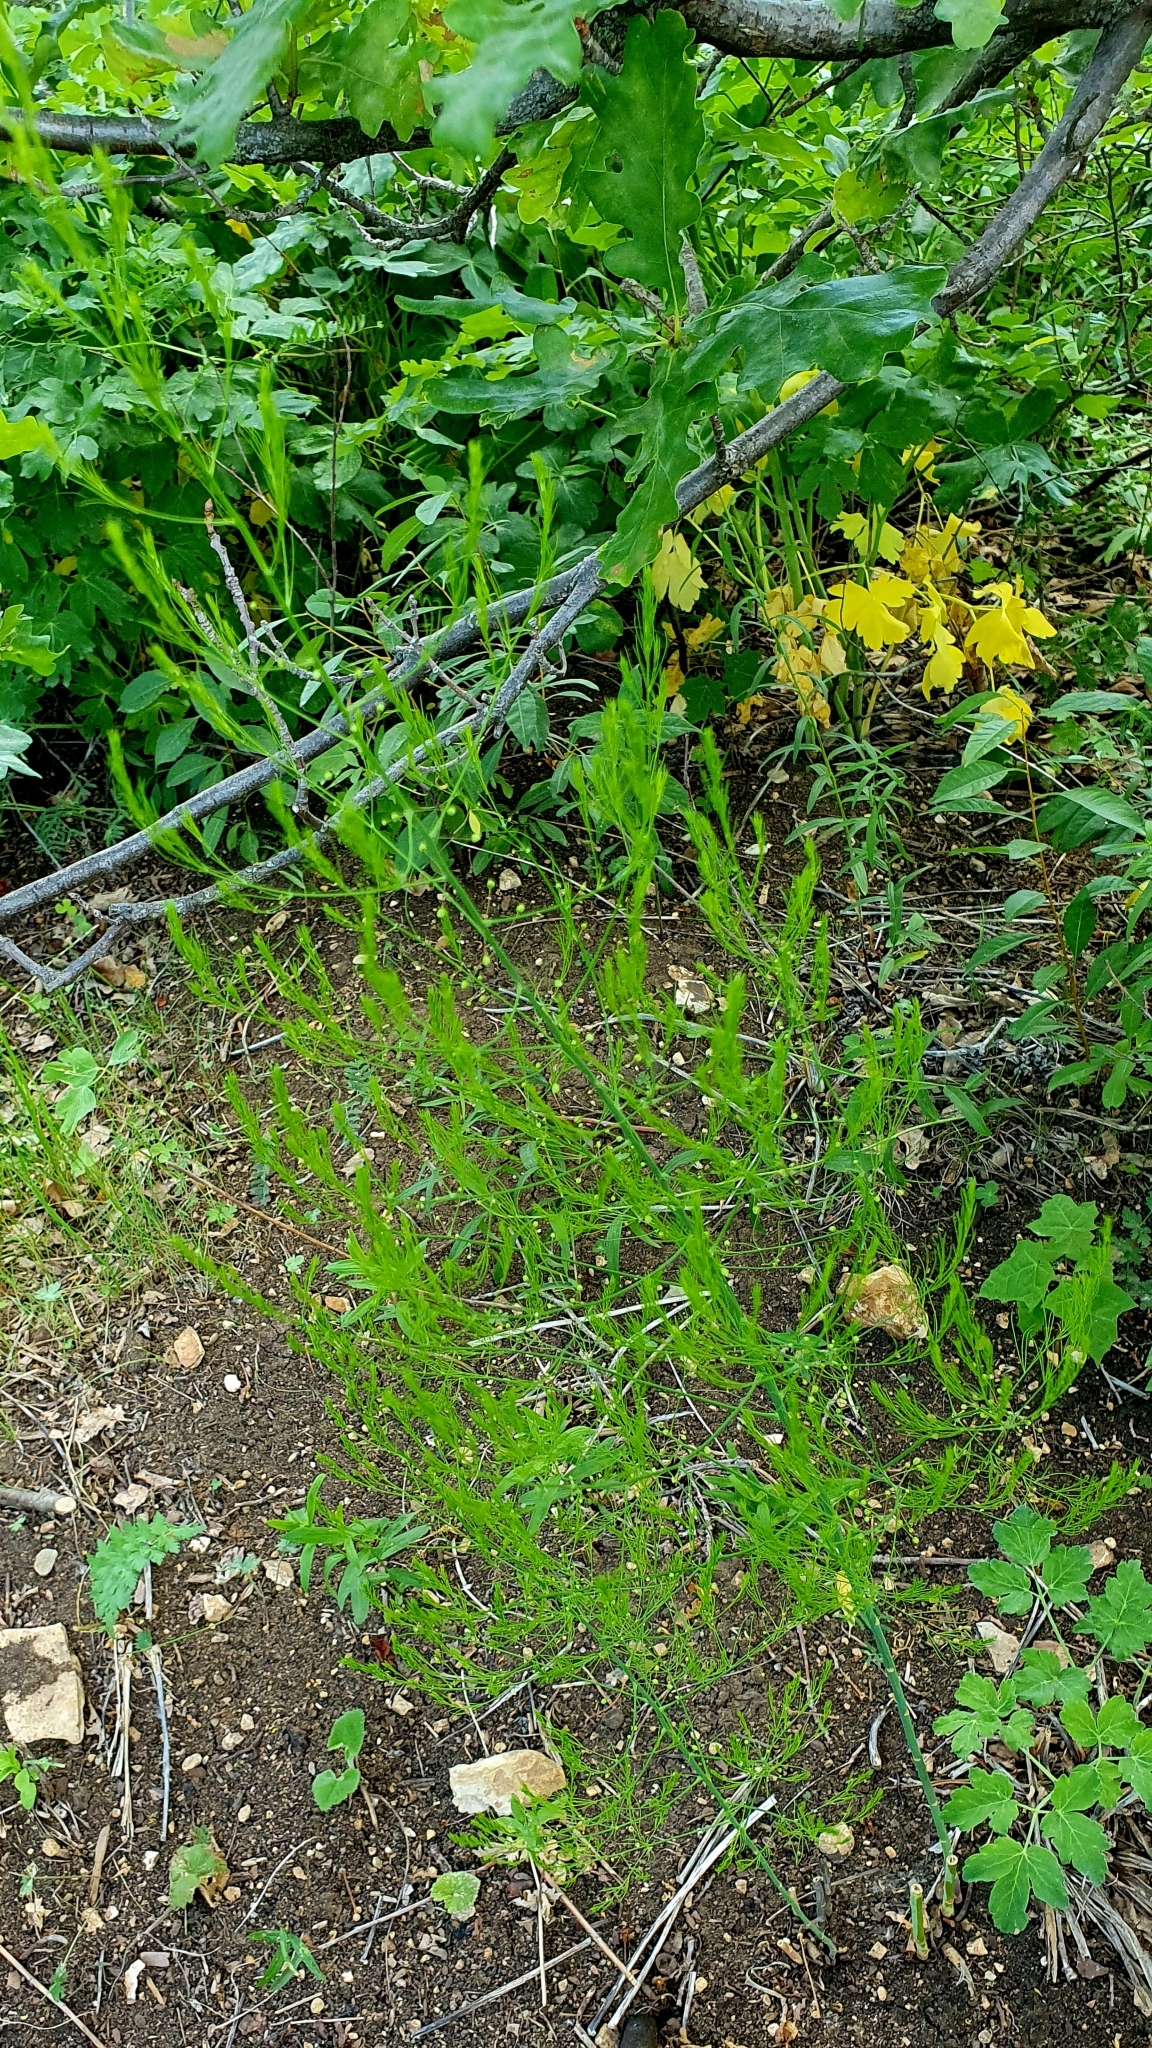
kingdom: Plantae
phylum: Tracheophyta
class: Liliopsida
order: Asparagales
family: Asparagaceae
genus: Asparagus
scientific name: Asparagus officinalis
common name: Garden asparagus
